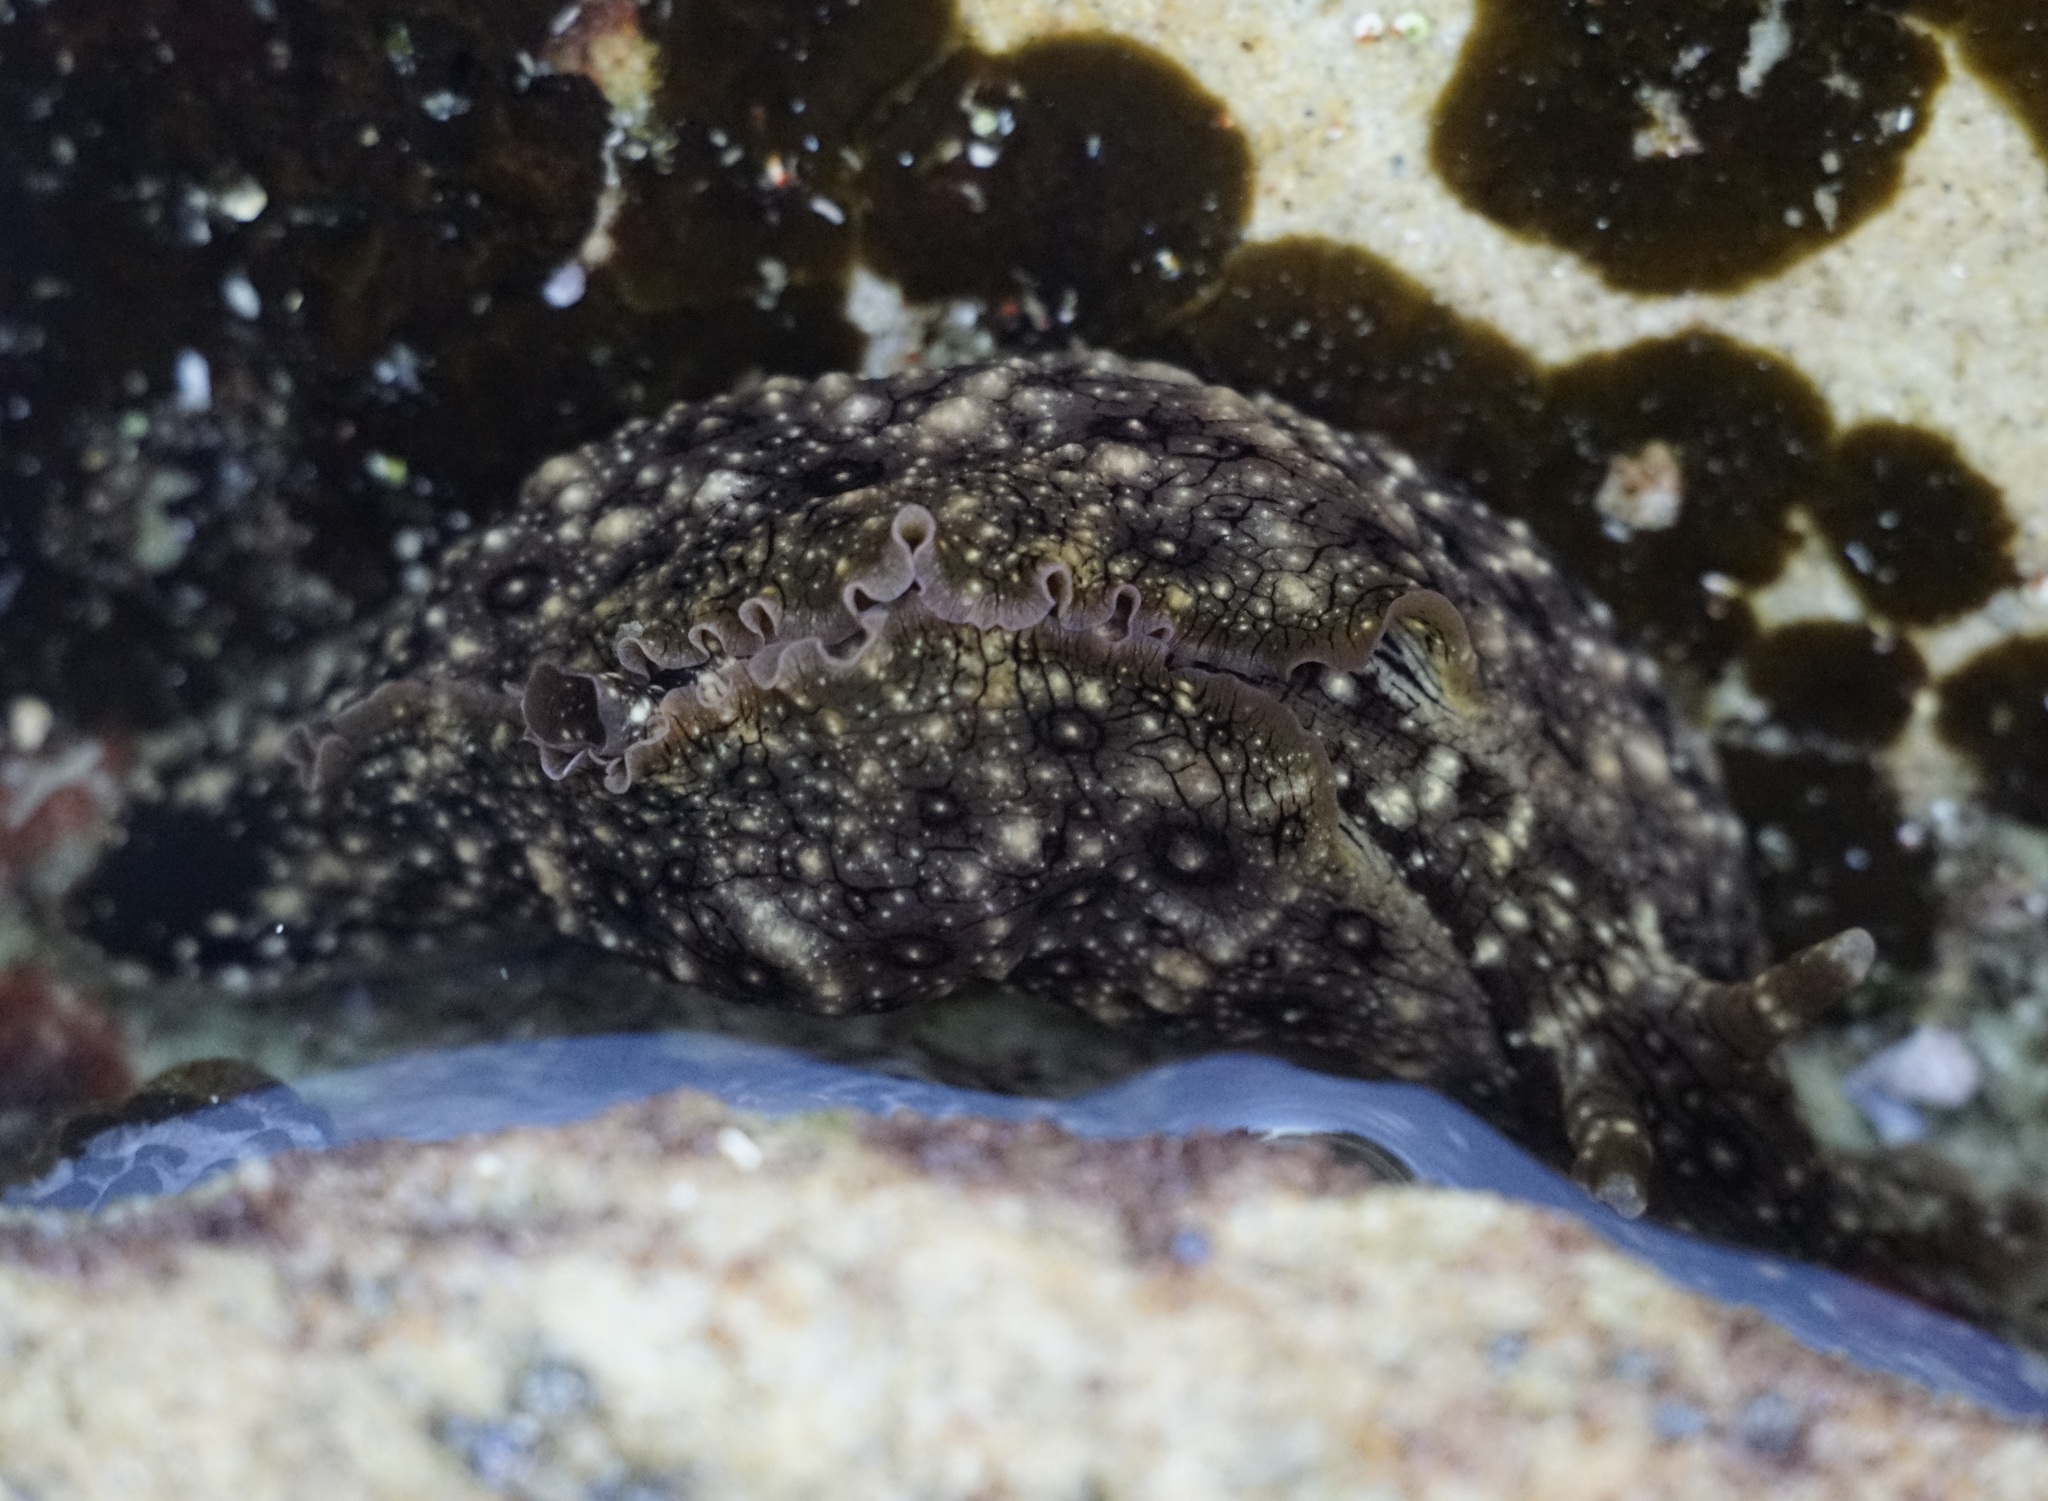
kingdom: Animalia
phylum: Mollusca
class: Gastropoda
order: Aplysiida
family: Aplysiidae
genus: Aplysia
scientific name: Aplysia argus
